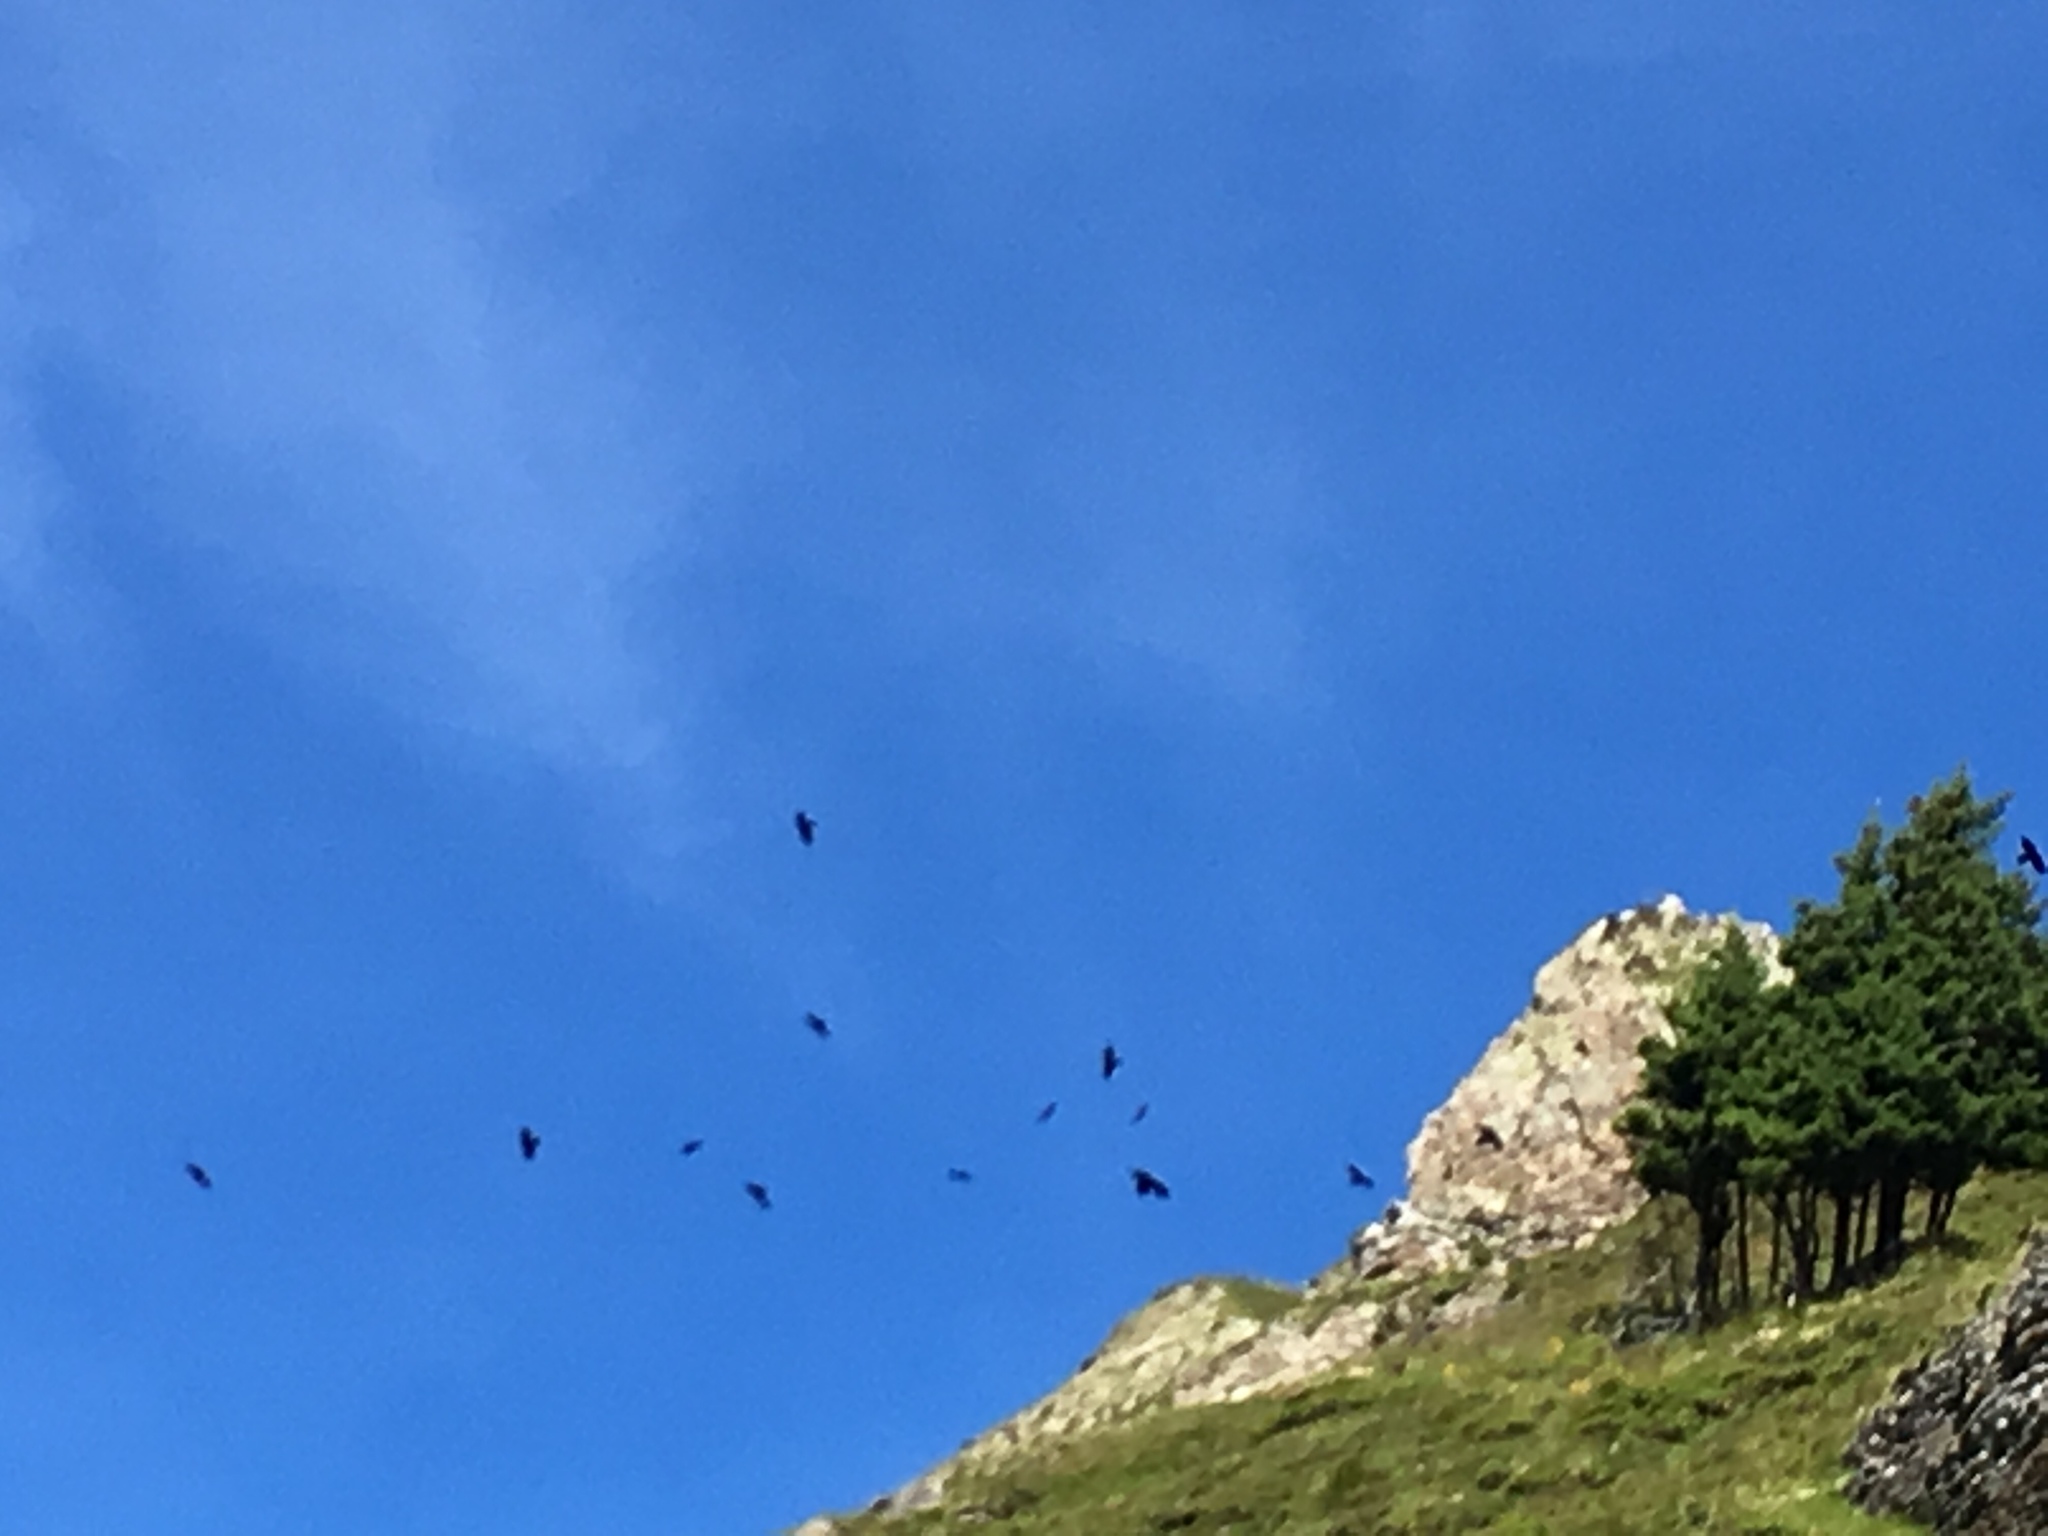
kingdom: Animalia
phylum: Chordata
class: Aves
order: Passeriformes
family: Corvidae
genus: Pyrrhocorax
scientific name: Pyrrhocorax graculus
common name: Alpine chough
